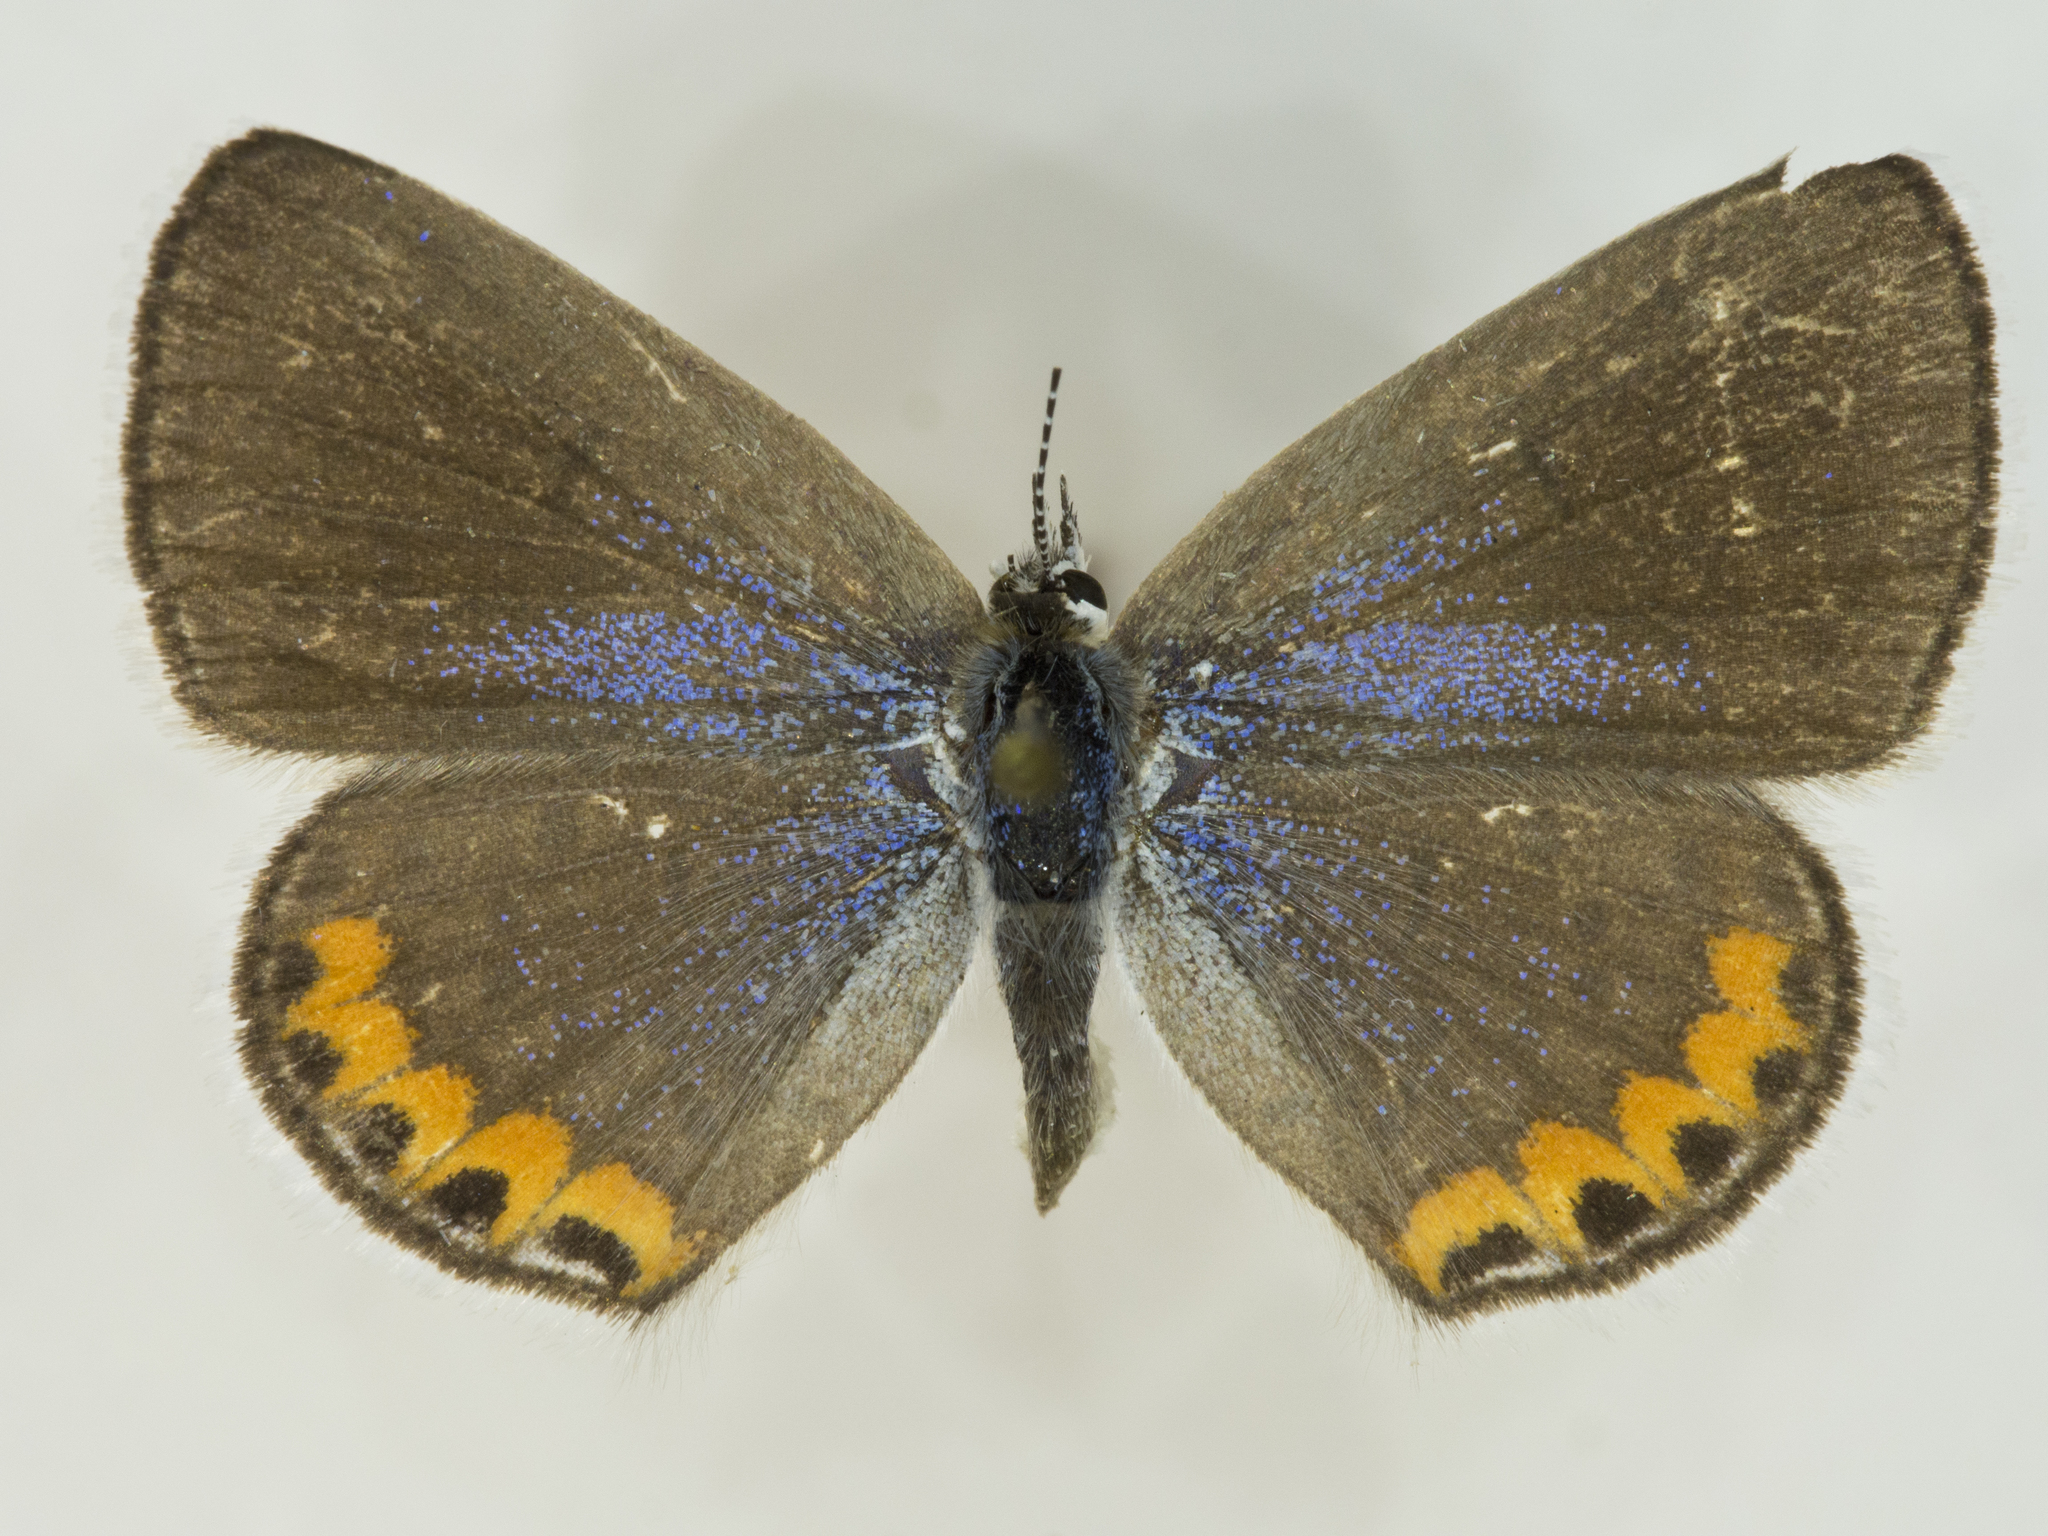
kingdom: Animalia
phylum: Arthropoda
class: Insecta
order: Lepidoptera
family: Lycaenidae
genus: Icaricia
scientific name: Icaricia lupini
